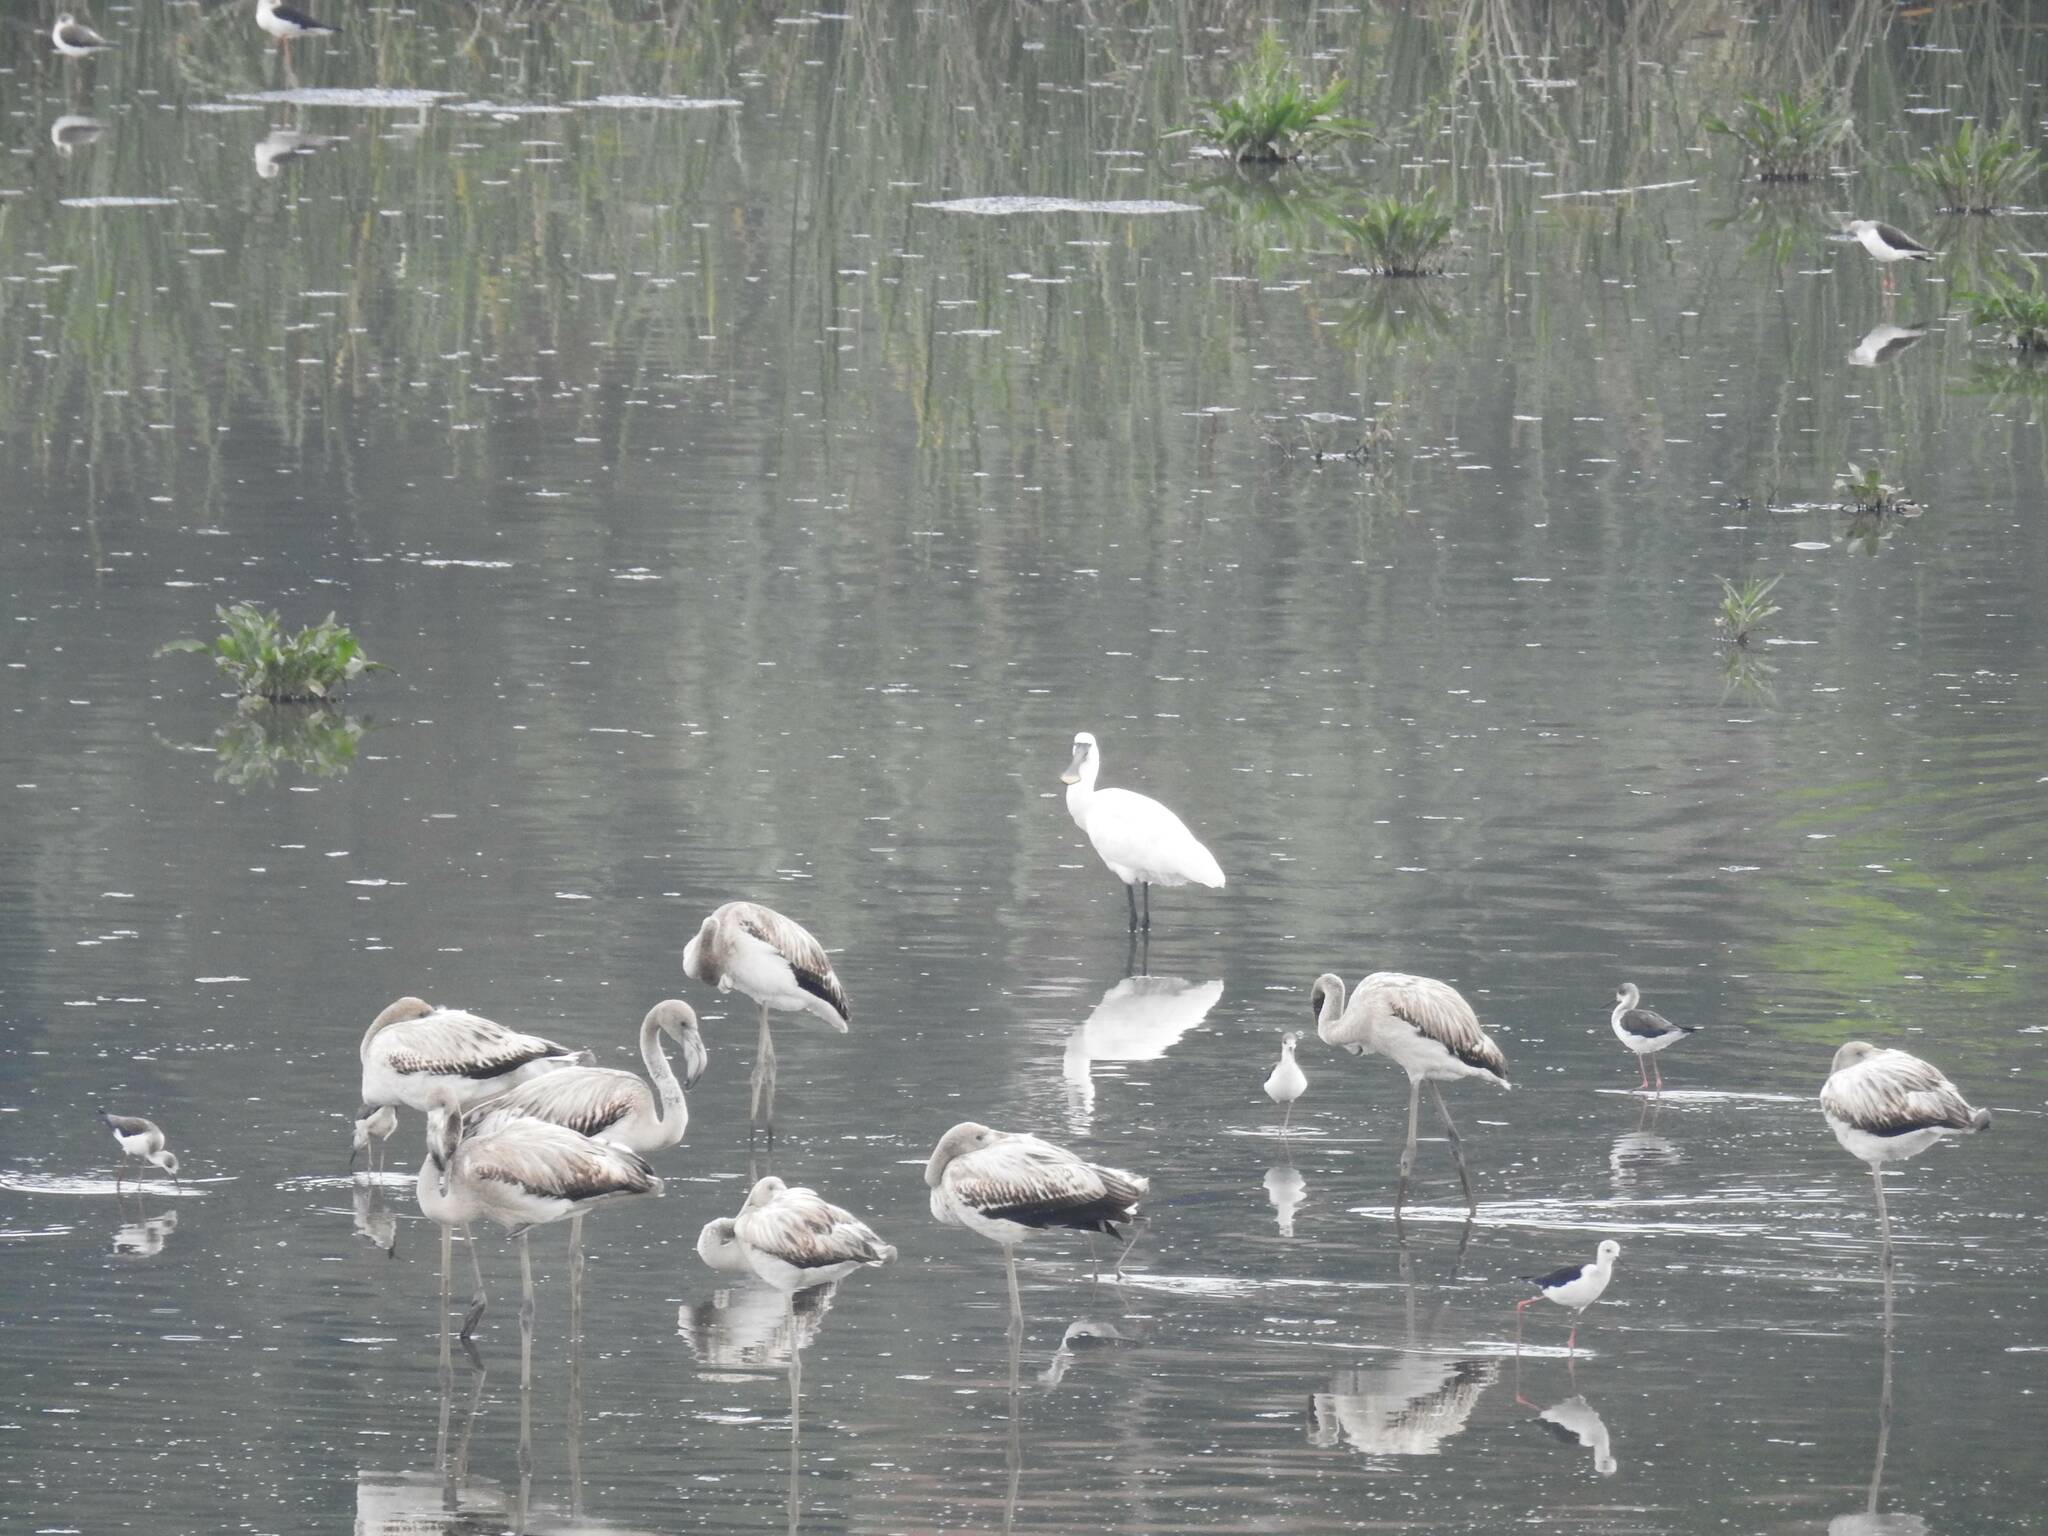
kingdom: Animalia
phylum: Chordata
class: Aves
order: Phoenicopteriformes
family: Phoenicopteridae
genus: Phoenicopterus
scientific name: Phoenicopterus roseus
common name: Greater flamingo
